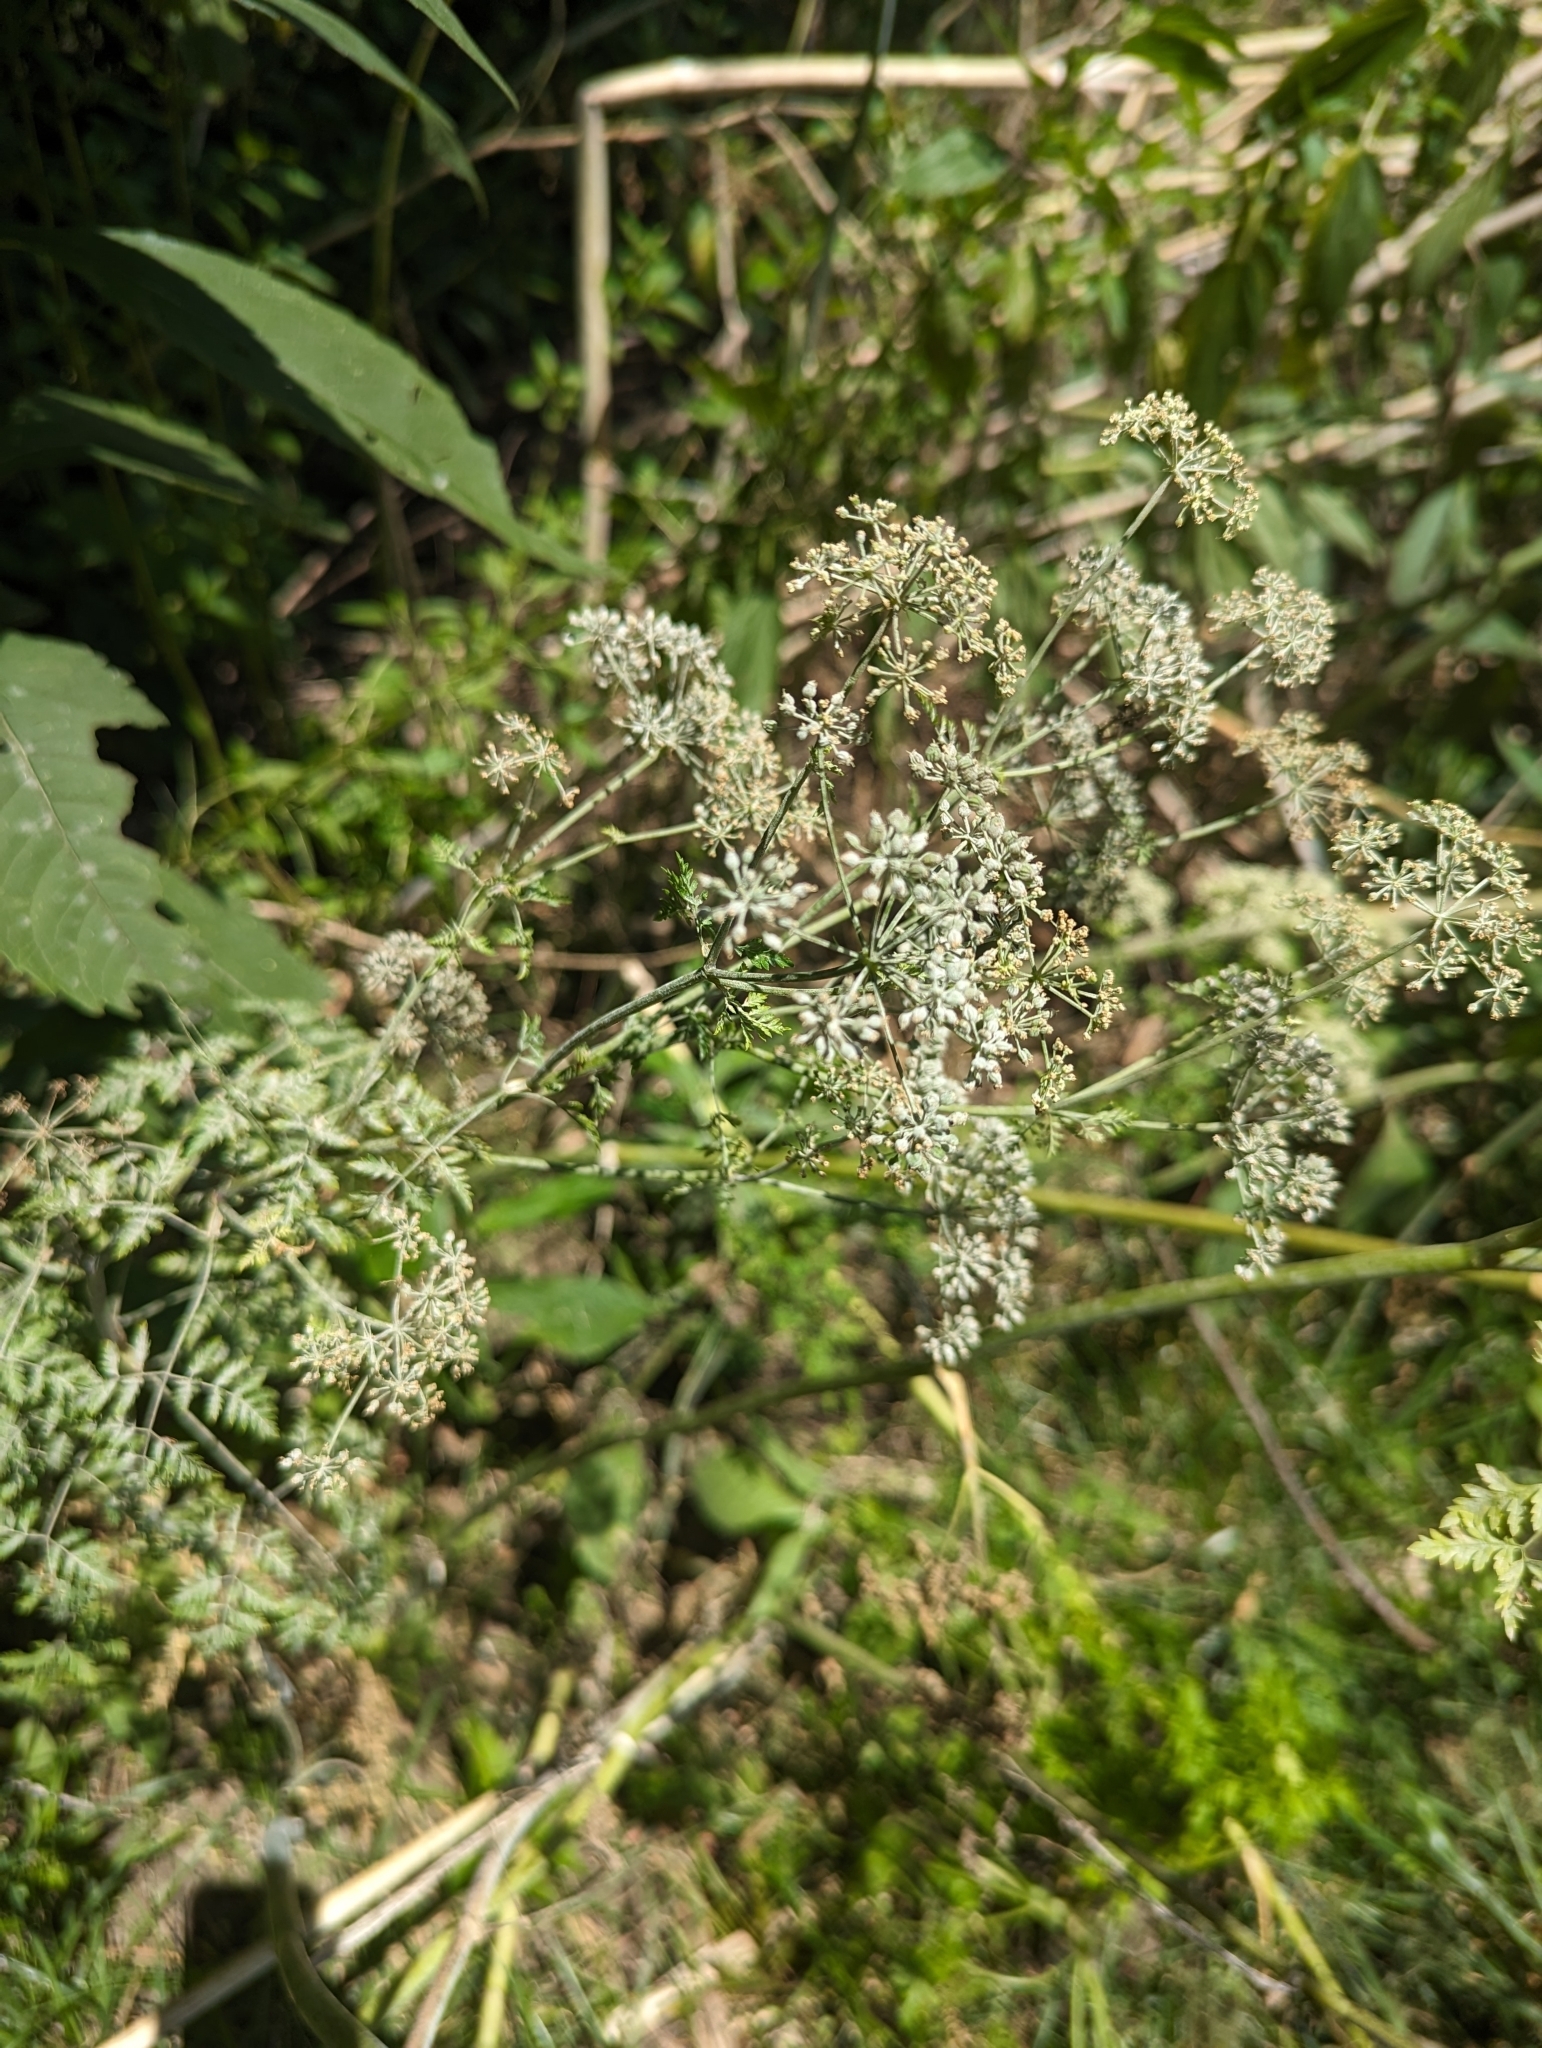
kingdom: Plantae
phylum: Tracheophyta
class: Magnoliopsida
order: Apiales
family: Apiaceae
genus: Conium
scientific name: Conium maculatum
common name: Hemlock
